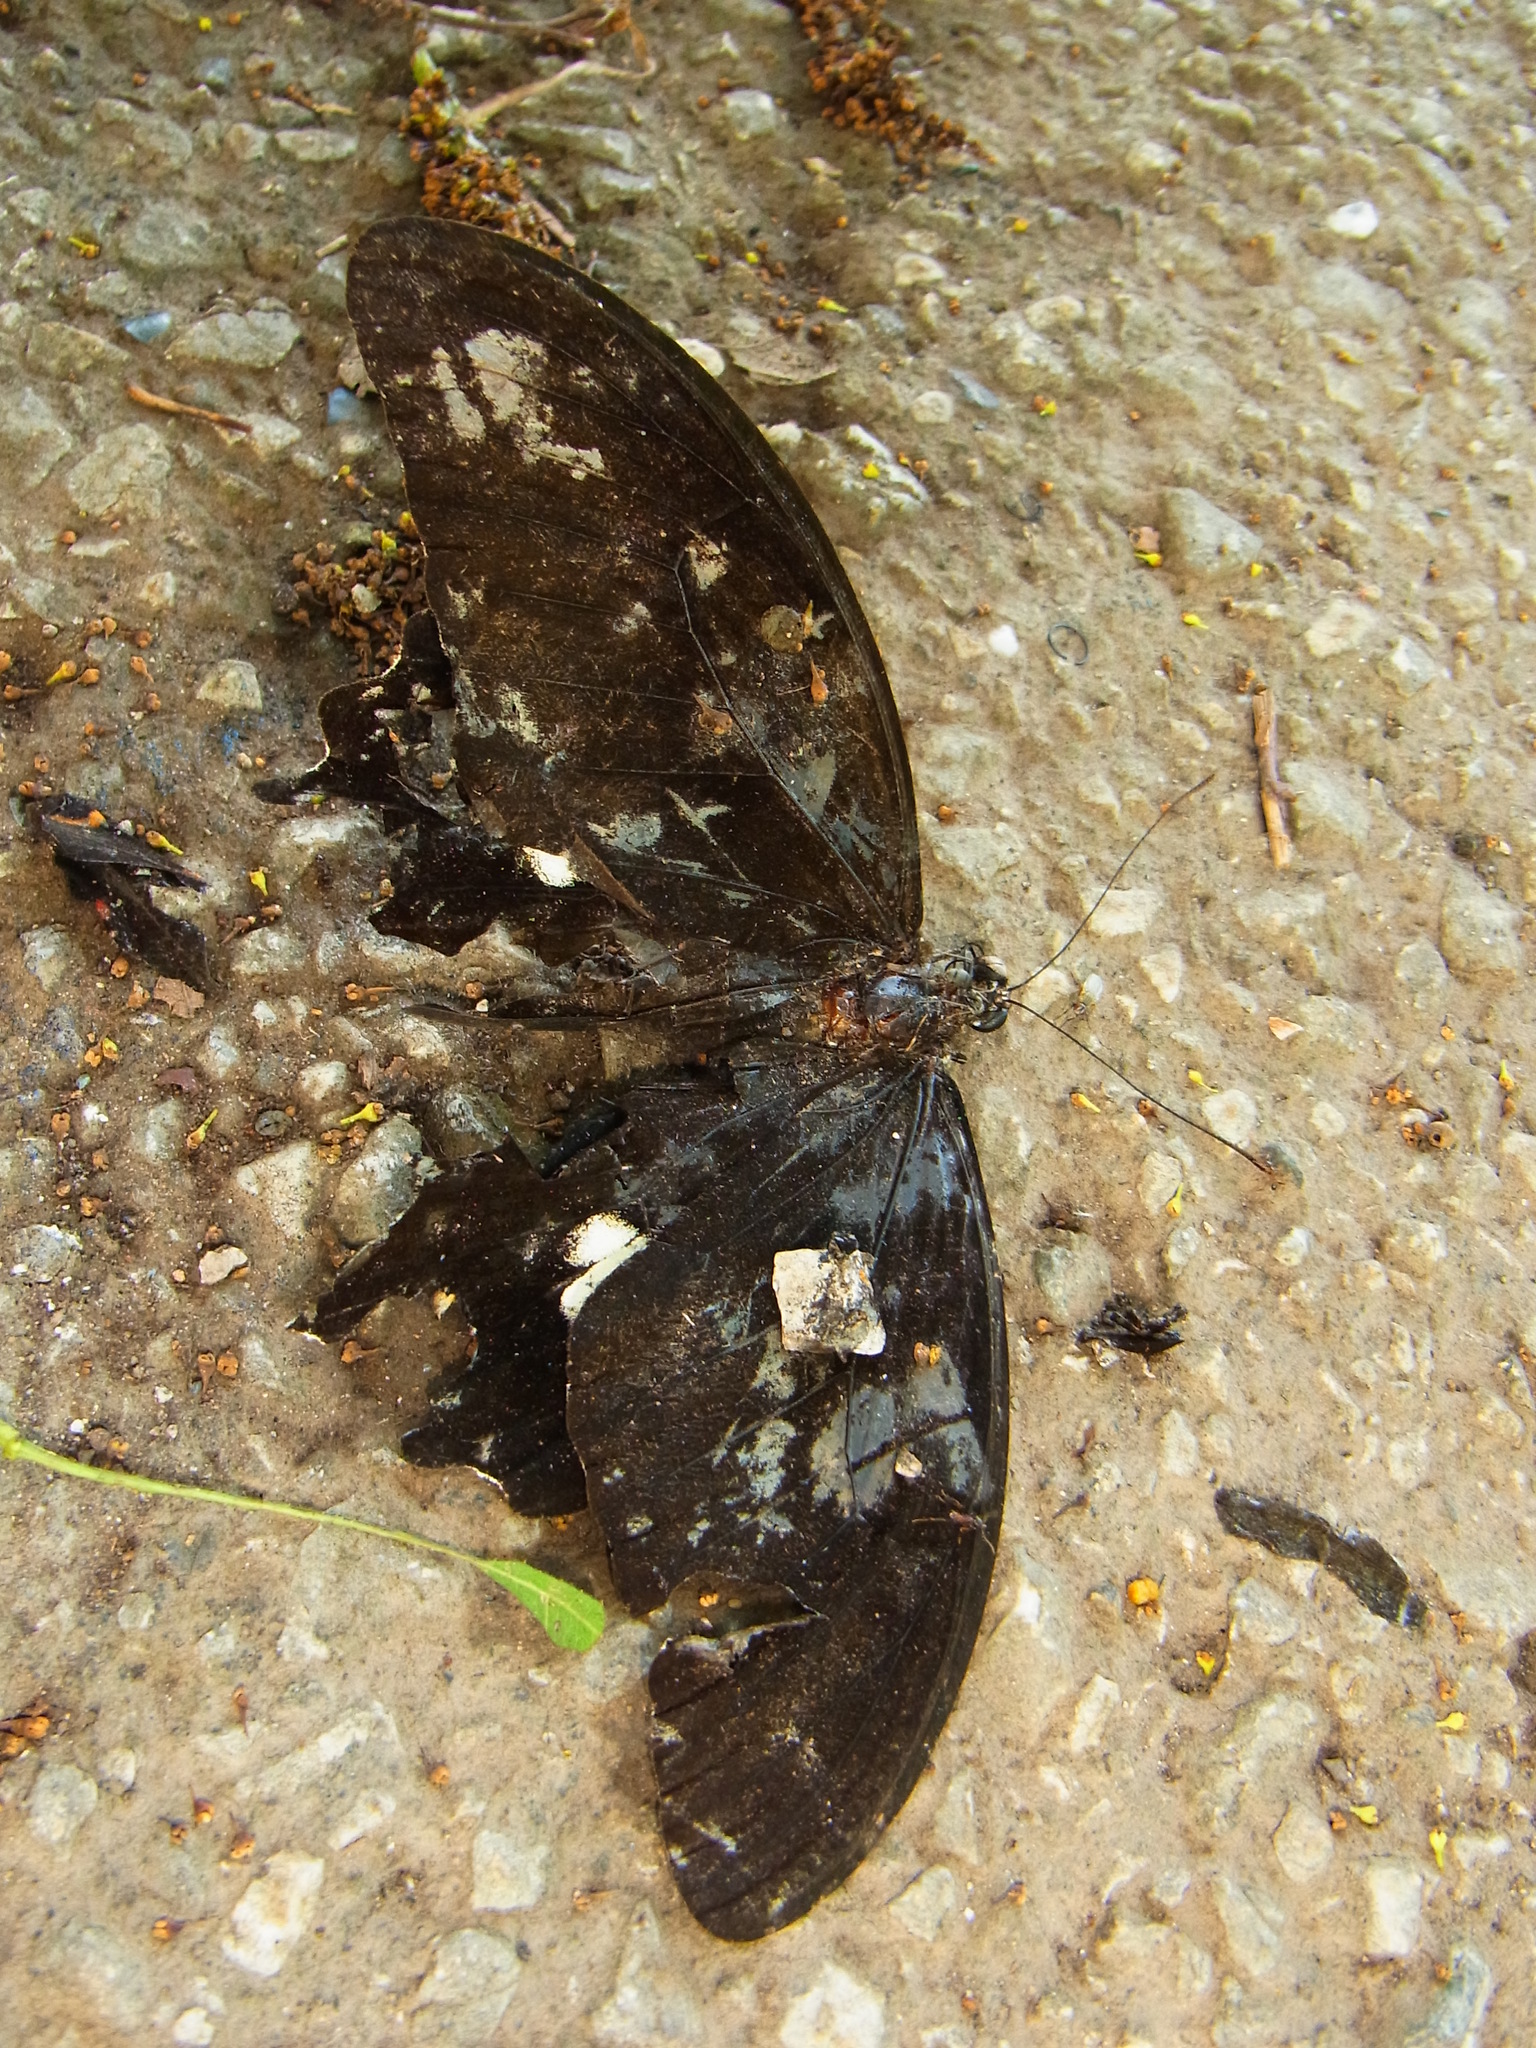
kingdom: Animalia
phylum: Arthropoda
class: Insecta
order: Lepidoptera
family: Papilionidae
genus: Papilio
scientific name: Papilio helenus
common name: Red helen
